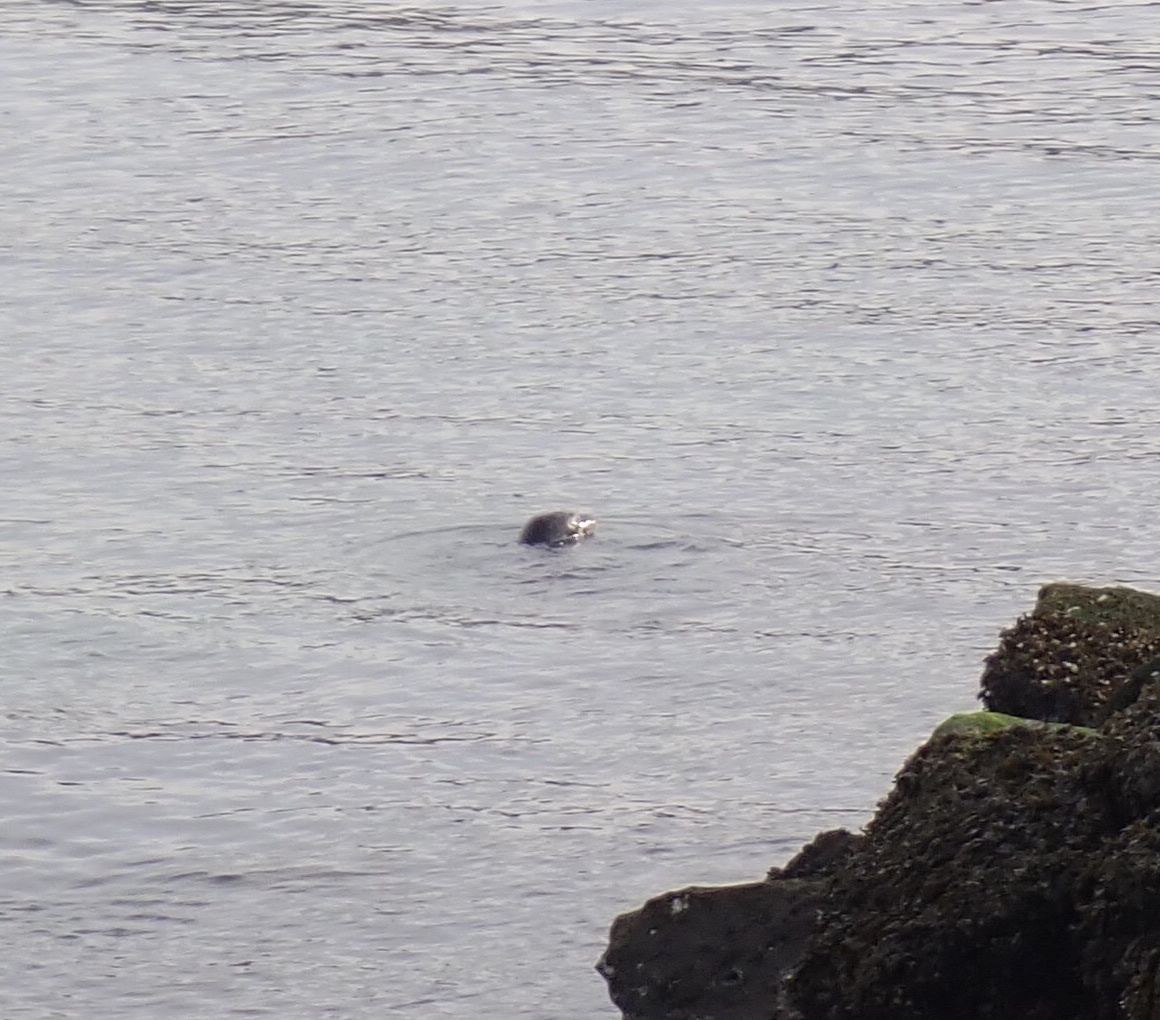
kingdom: Animalia
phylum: Chordata
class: Mammalia
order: Carnivora
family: Phocidae
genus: Phoca
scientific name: Phoca vitulina
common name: Harbor seal
